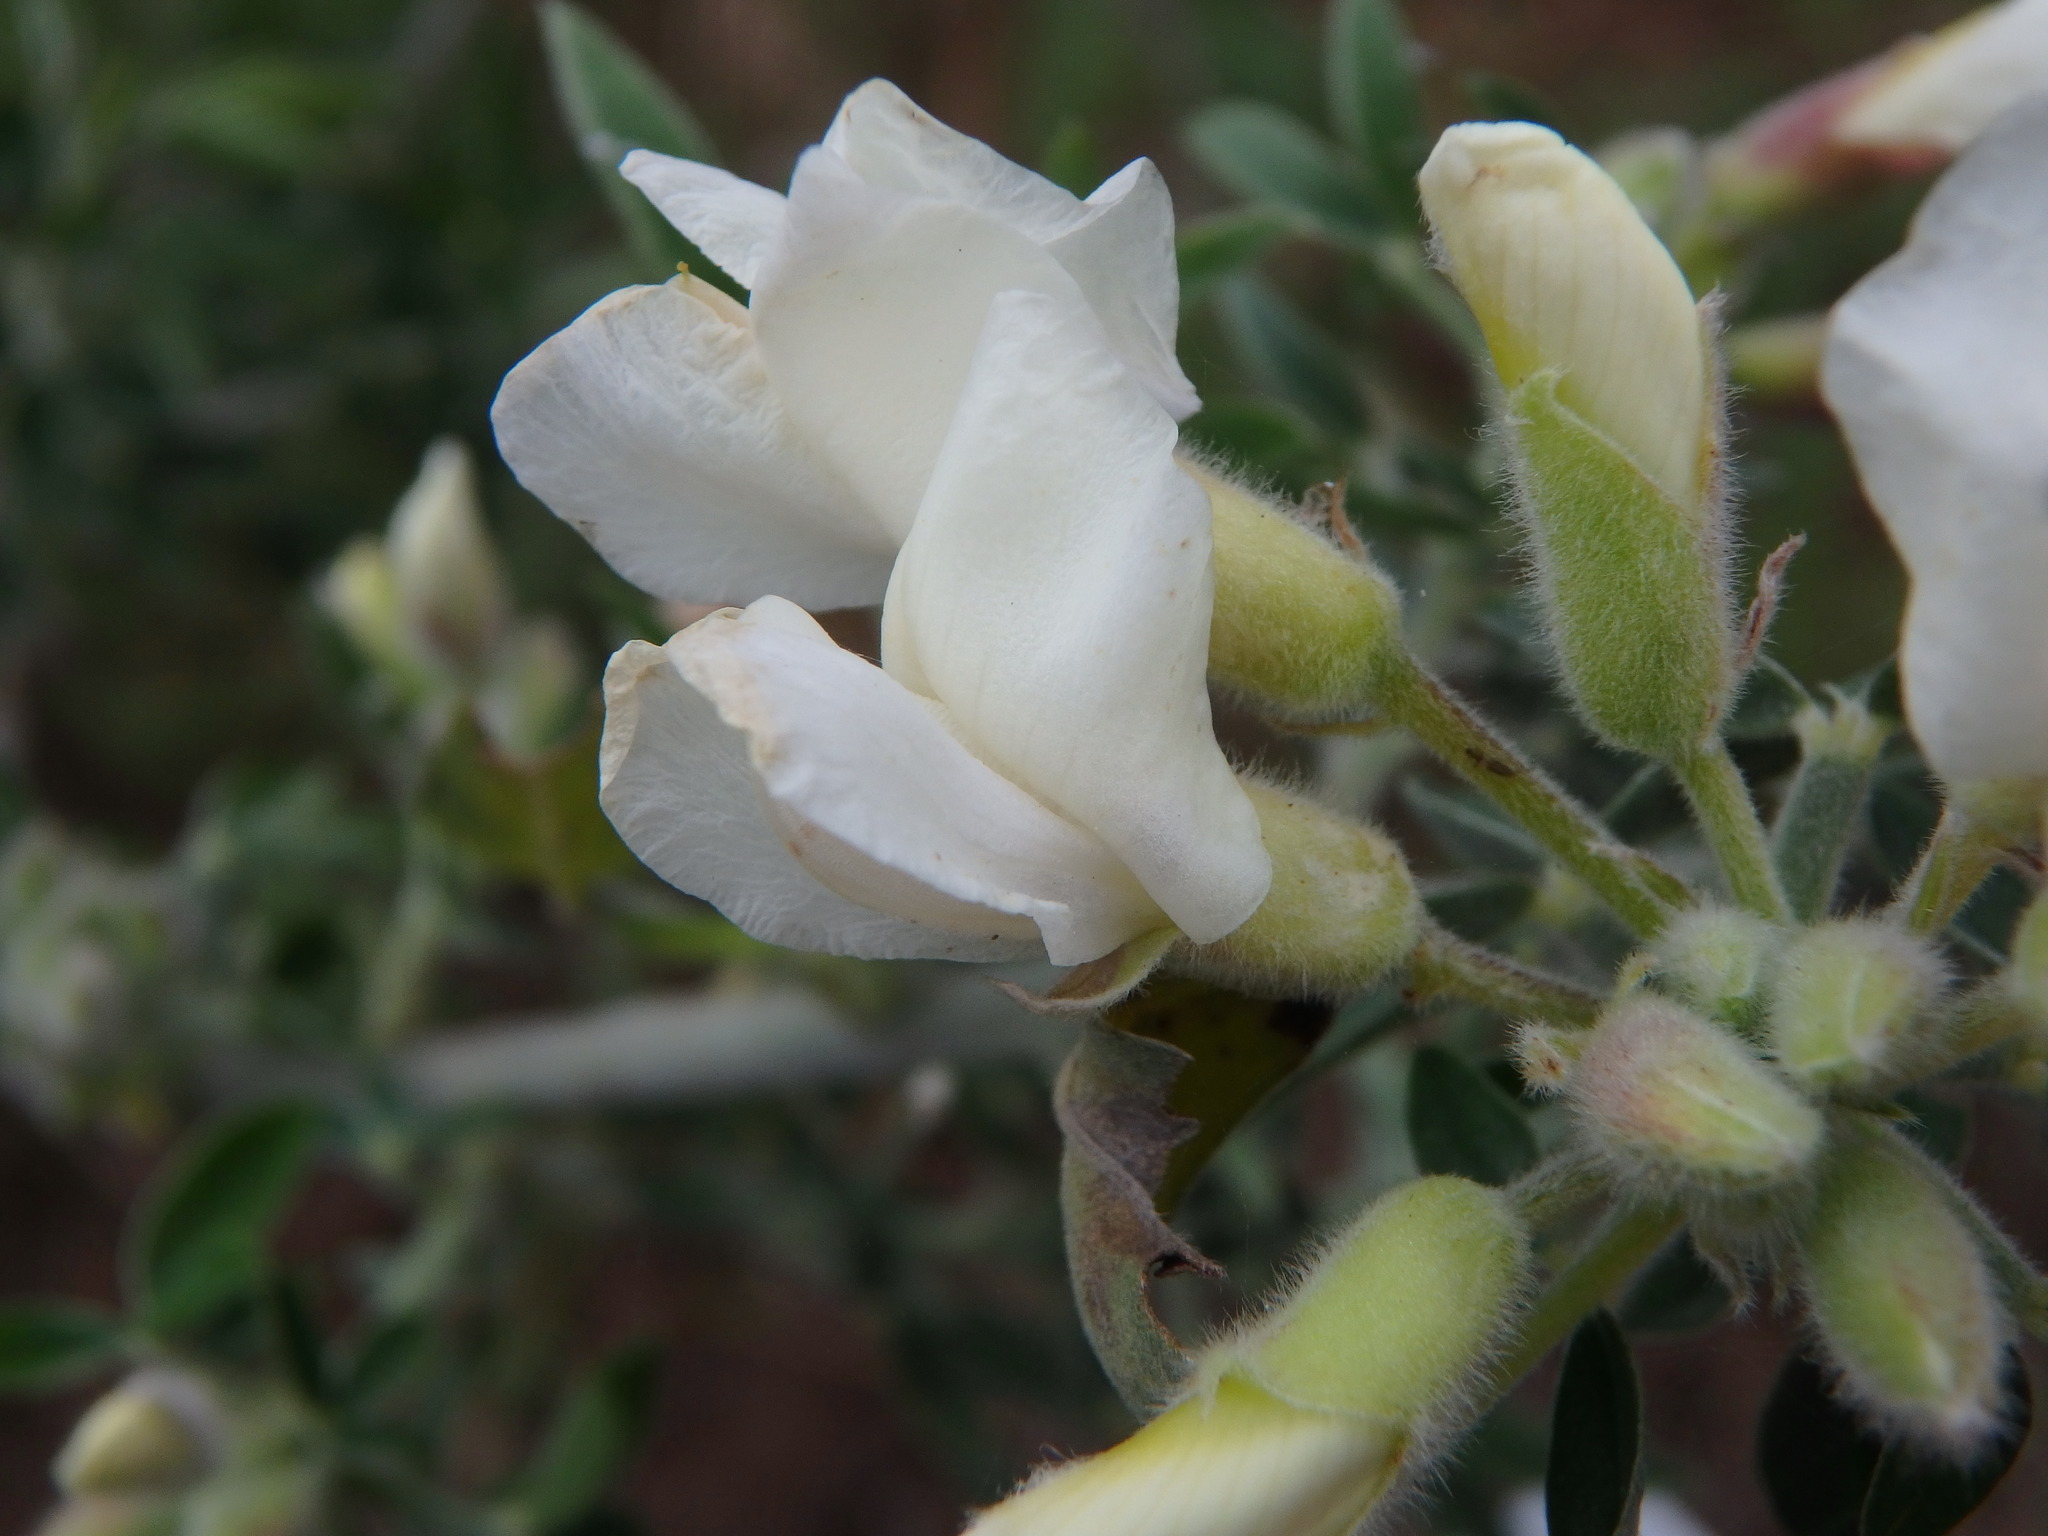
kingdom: Plantae
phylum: Tracheophyta
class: Magnoliopsida
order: Fabales
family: Fabaceae
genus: Chamaecytisus
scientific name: Chamaecytisus prolifer
